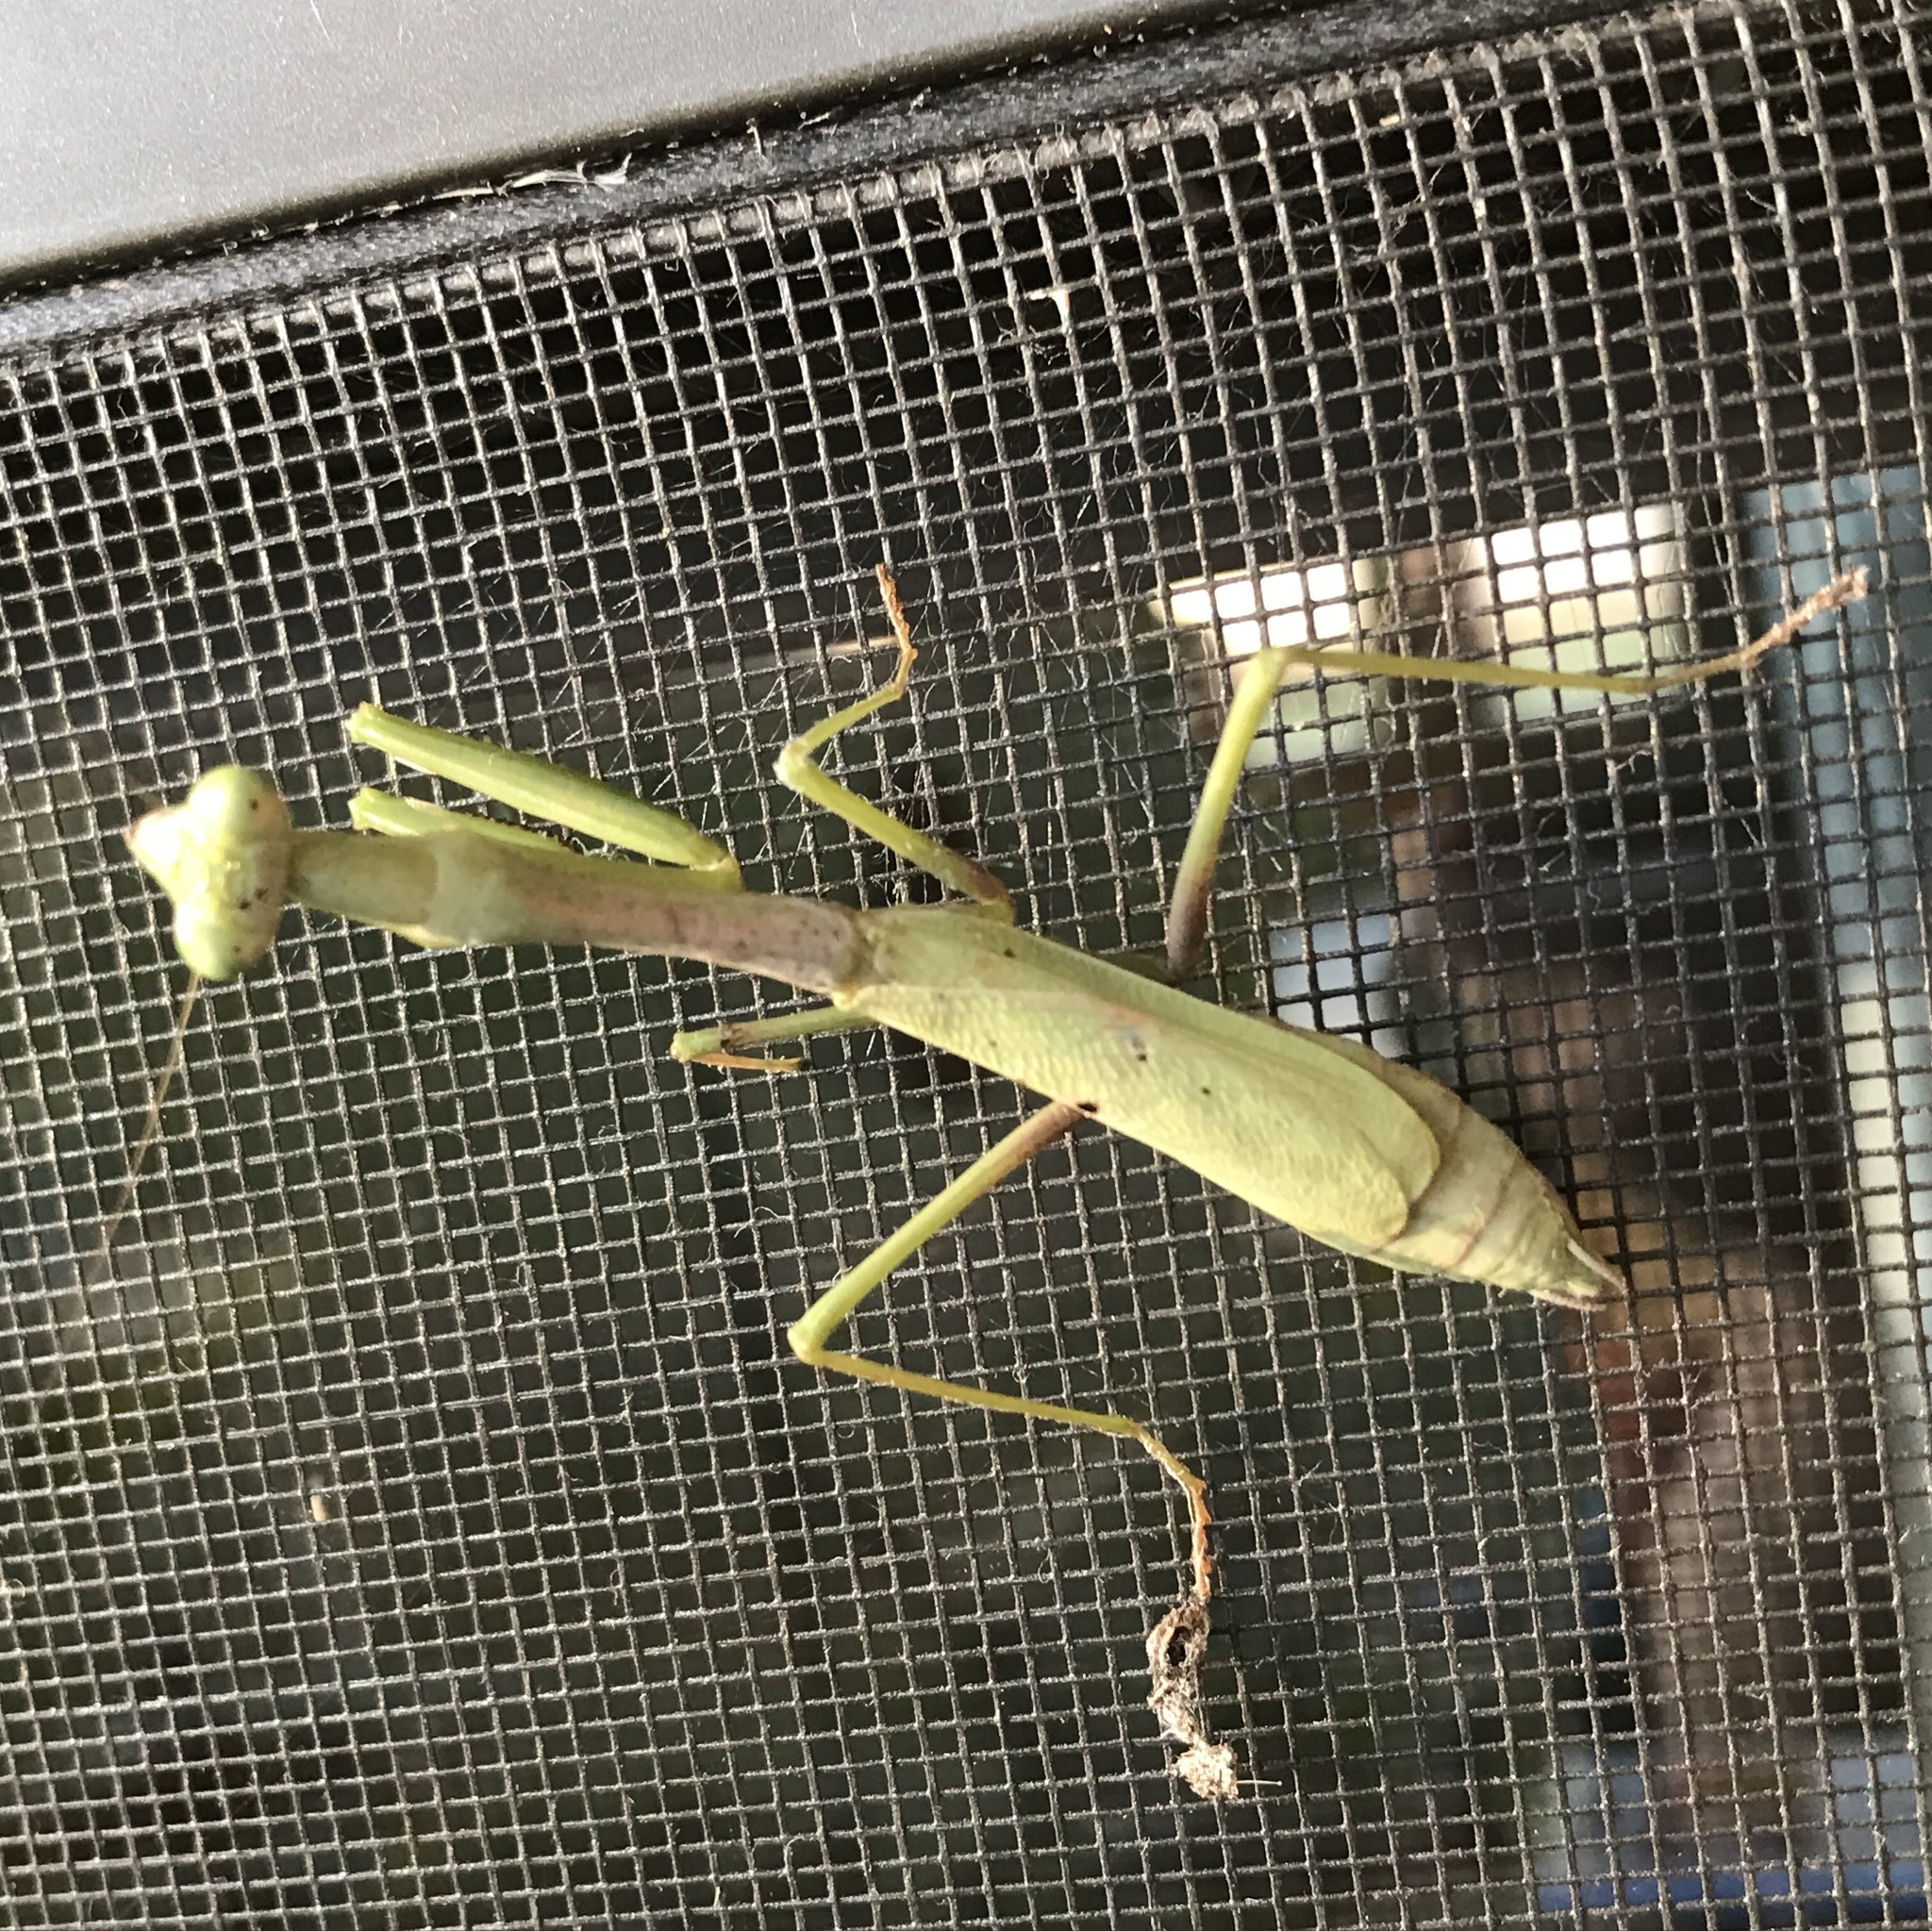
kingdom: Animalia
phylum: Arthropoda
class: Insecta
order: Mantodea
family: Mantidae
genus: Stagmomantis
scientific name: Stagmomantis carolina
